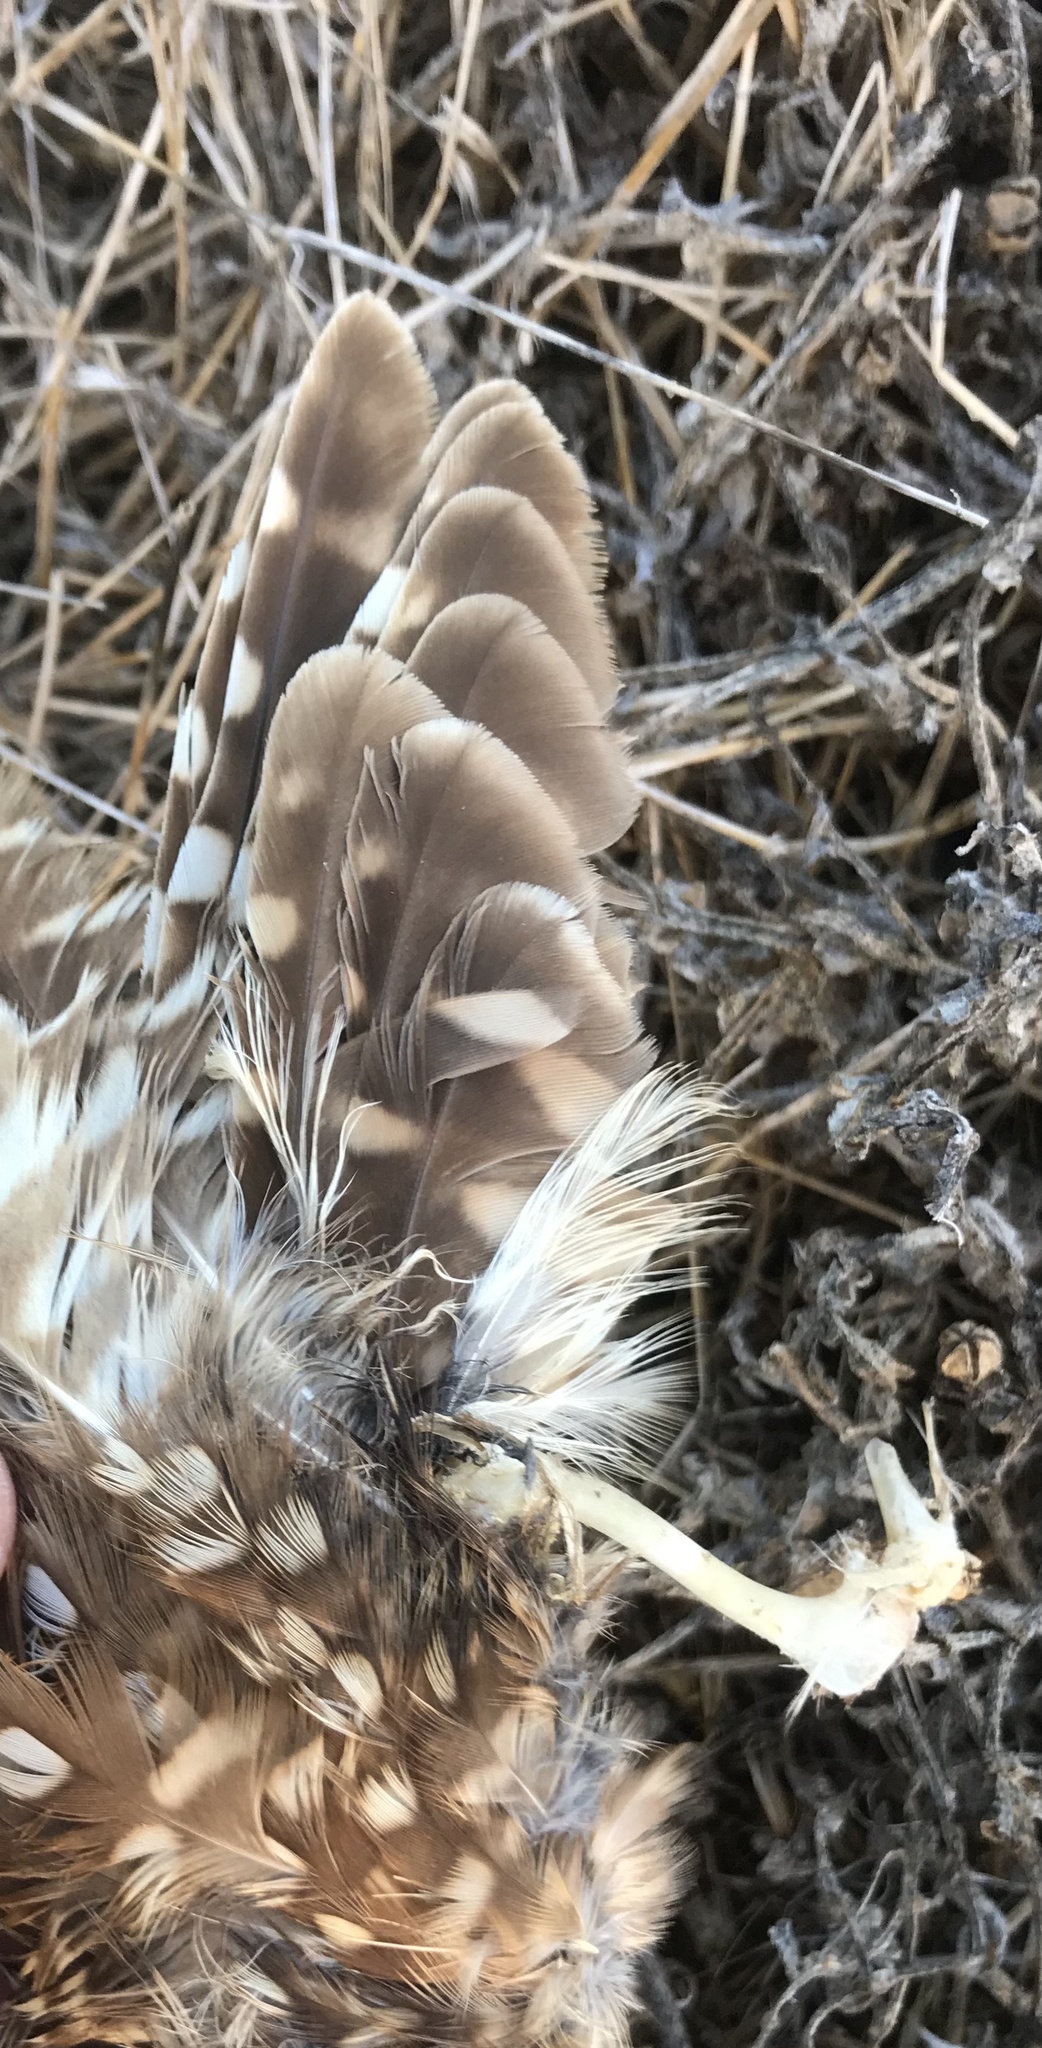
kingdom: Animalia
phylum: Chordata
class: Aves
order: Strigiformes
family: Strigidae
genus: Athene
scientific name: Athene cunicularia
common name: Burrowing owl
